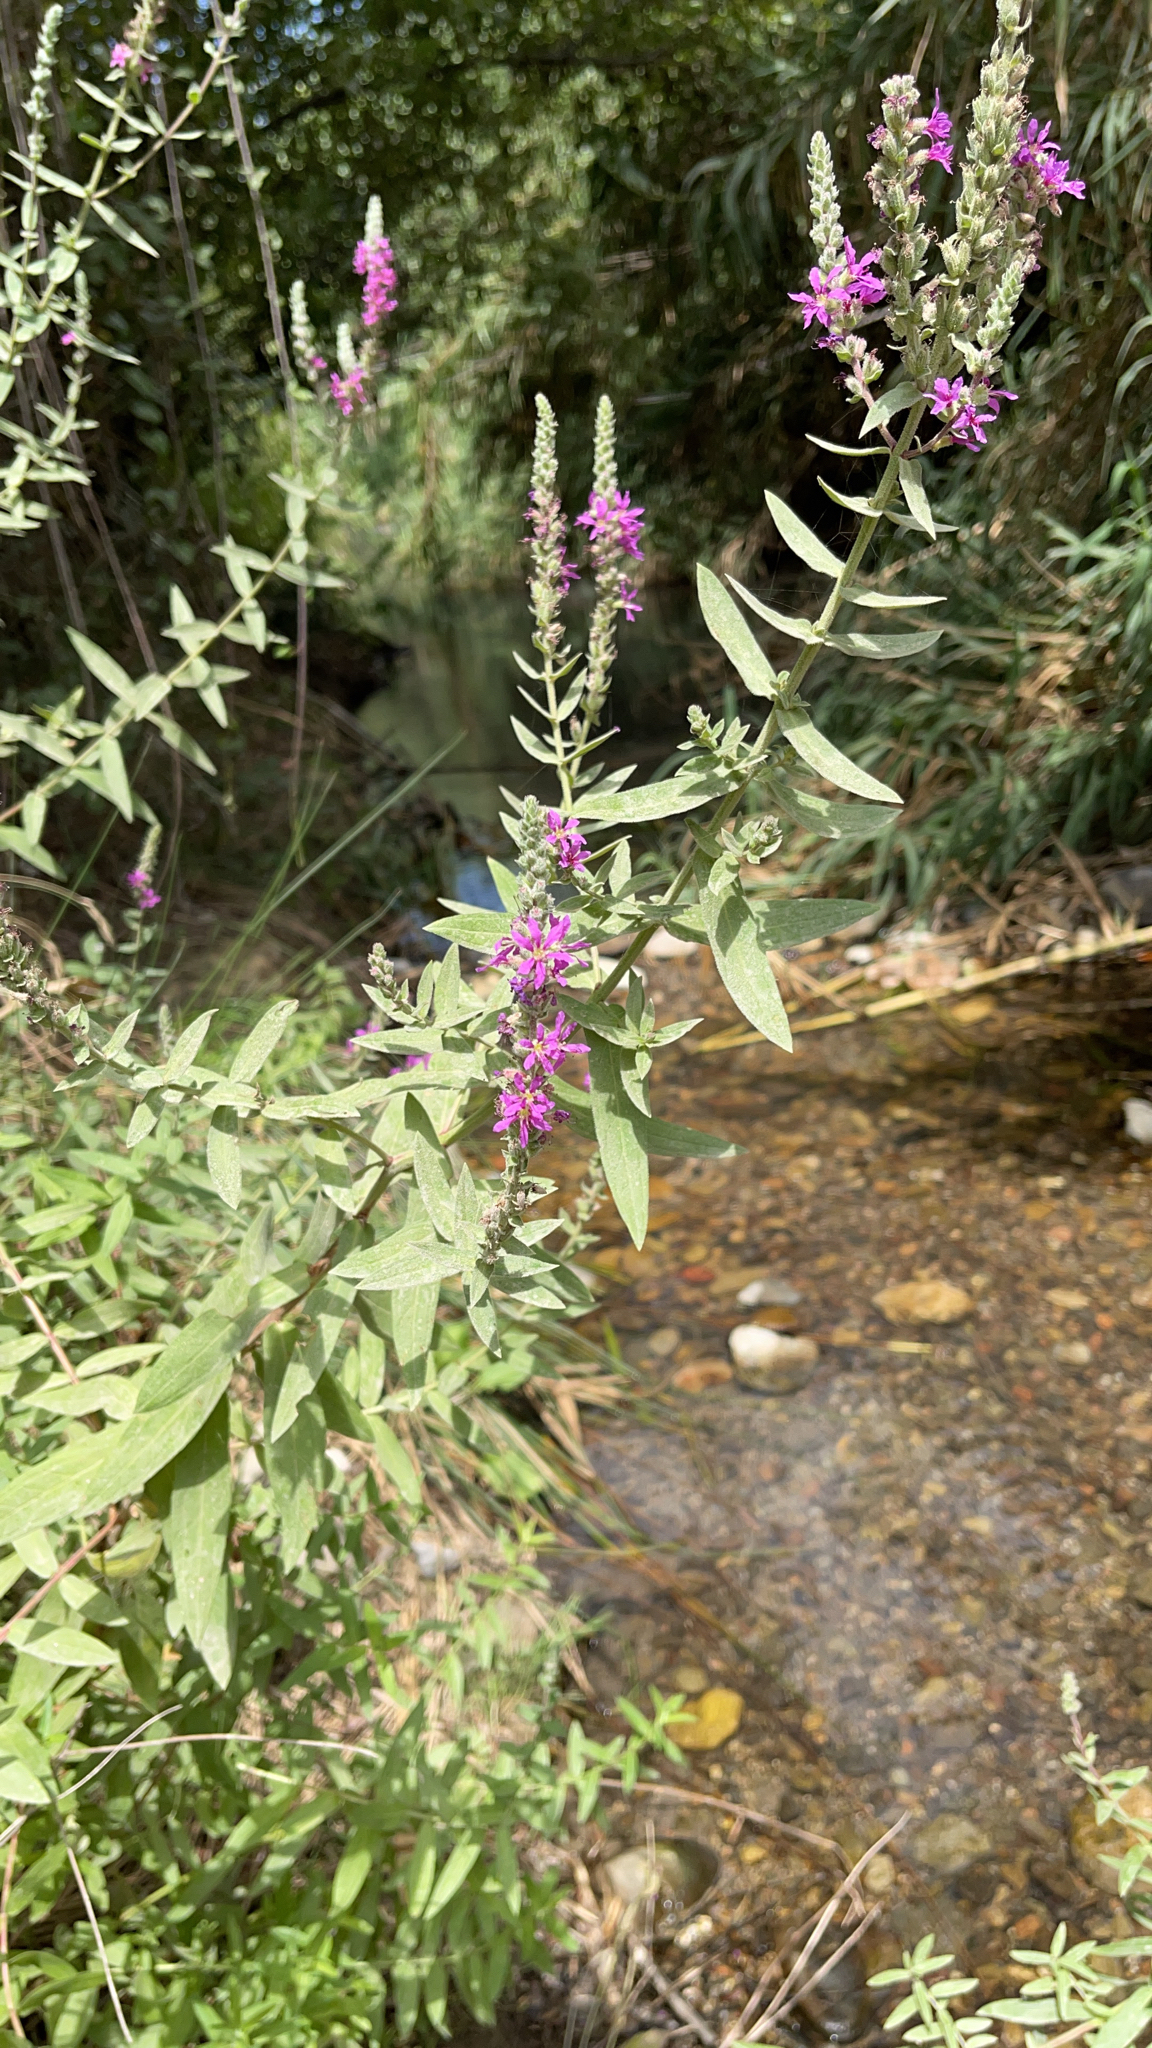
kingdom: Plantae
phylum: Tracheophyta
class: Magnoliopsida
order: Myrtales
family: Lythraceae
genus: Lythrum
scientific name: Lythrum salicaria
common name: Purple loosestrife
